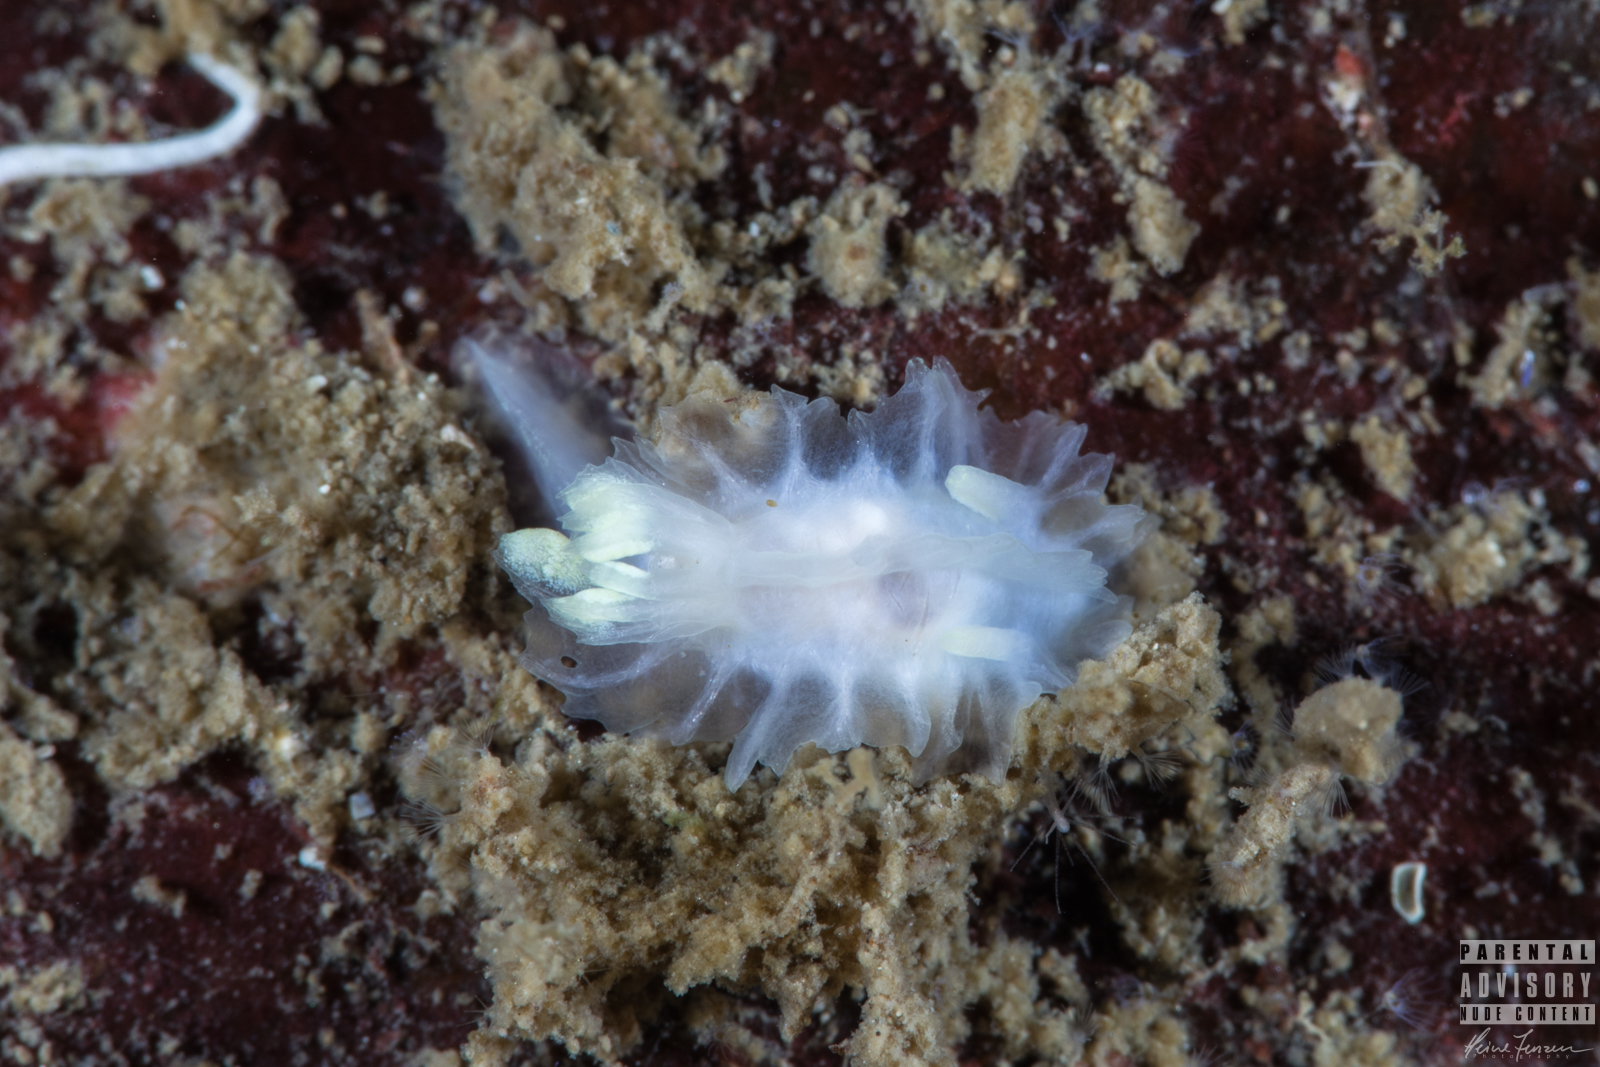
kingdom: Animalia
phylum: Mollusca
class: Gastropoda
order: Nudibranchia
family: Goniodorididae
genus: Lophodoris
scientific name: Lophodoris danielsseni
